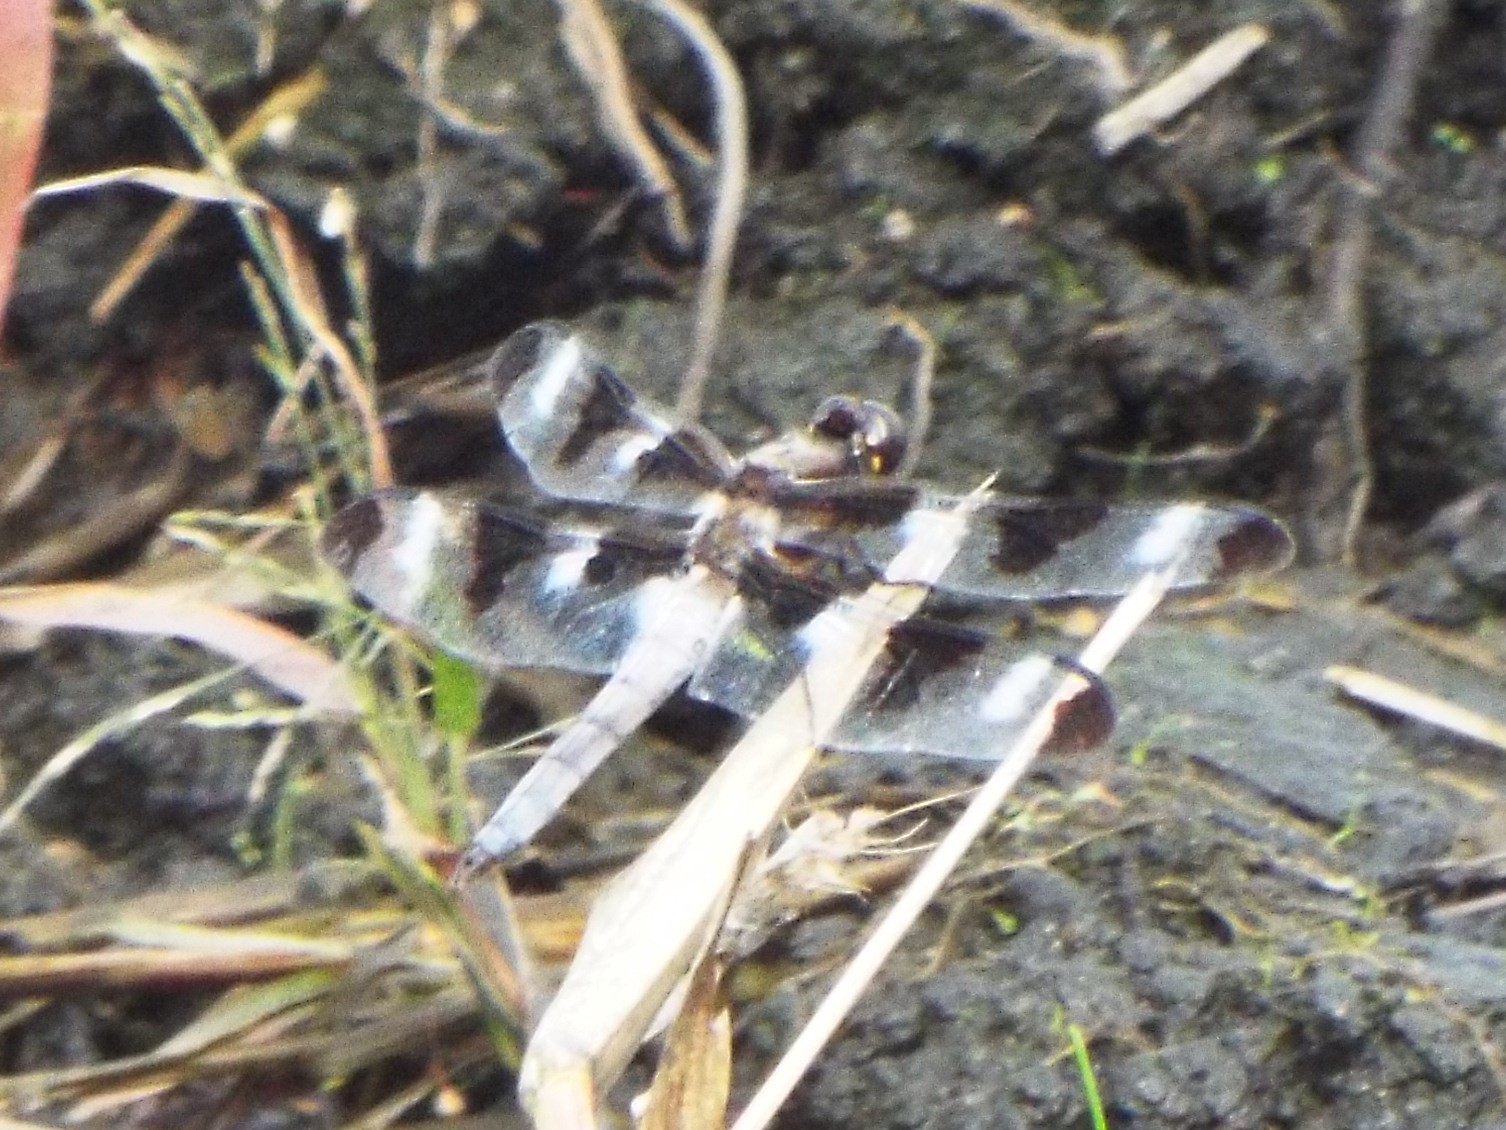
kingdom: Animalia
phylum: Arthropoda
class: Insecta
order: Odonata
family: Libellulidae
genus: Libellula
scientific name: Libellula pulchella
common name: Twelve-spotted skimmer
